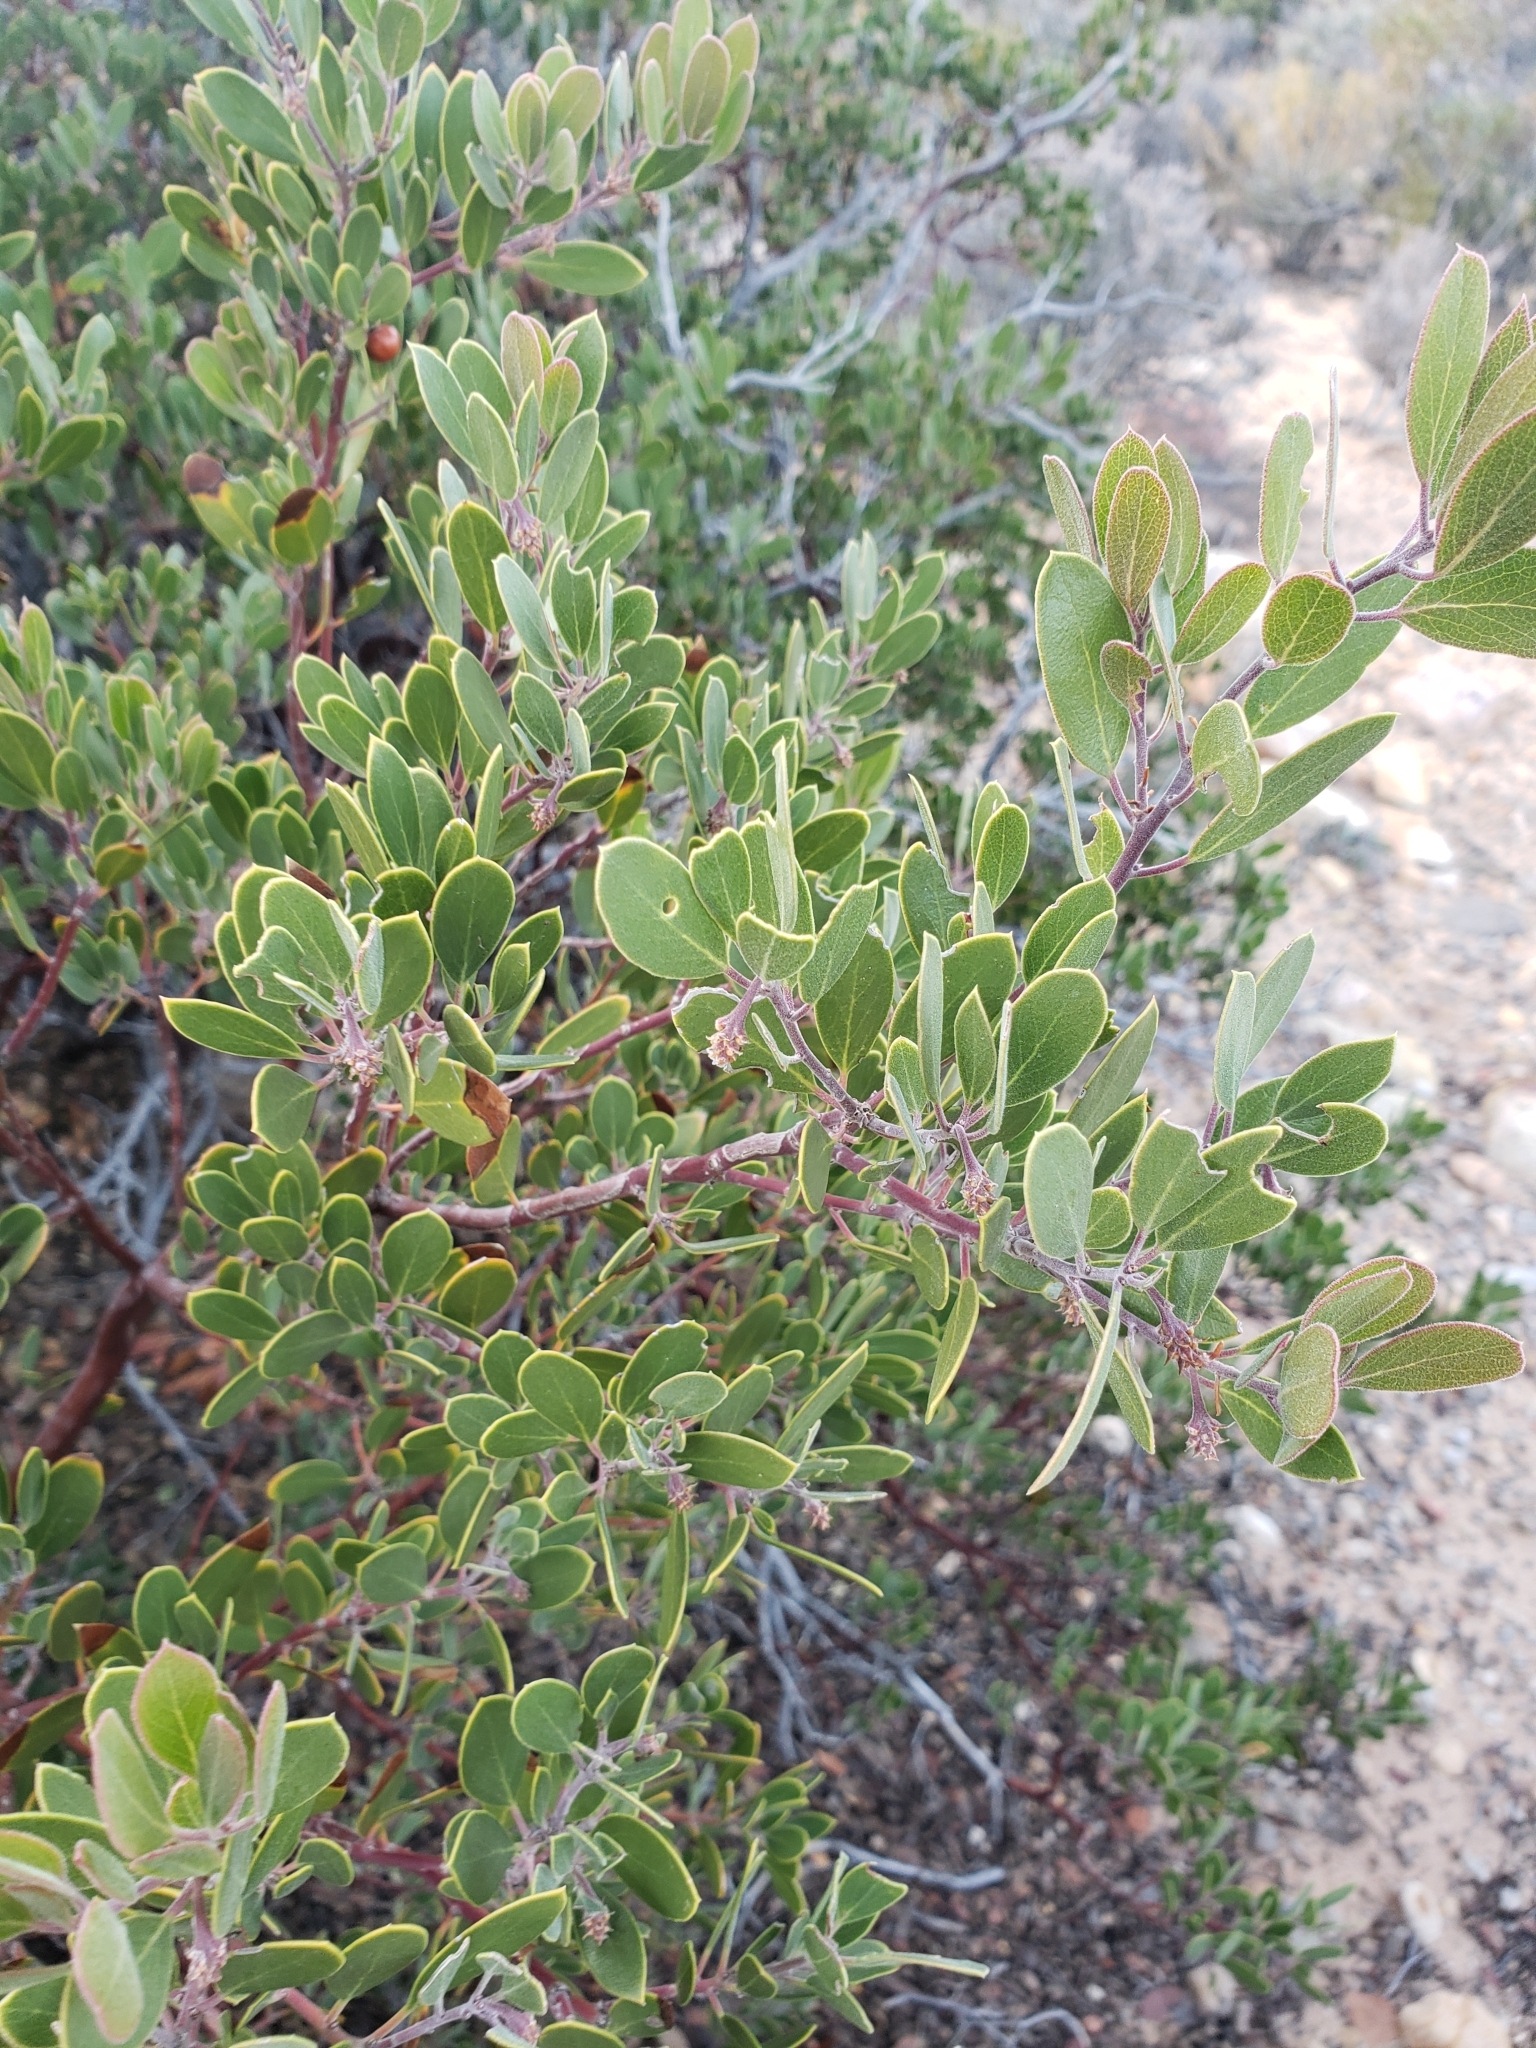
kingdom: Plantae
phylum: Tracheophyta
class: Magnoliopsida
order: Ericales
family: Ericaceae
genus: Arctostaphylos
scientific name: Arctostaphylos pungens
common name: Mexican manzanita
